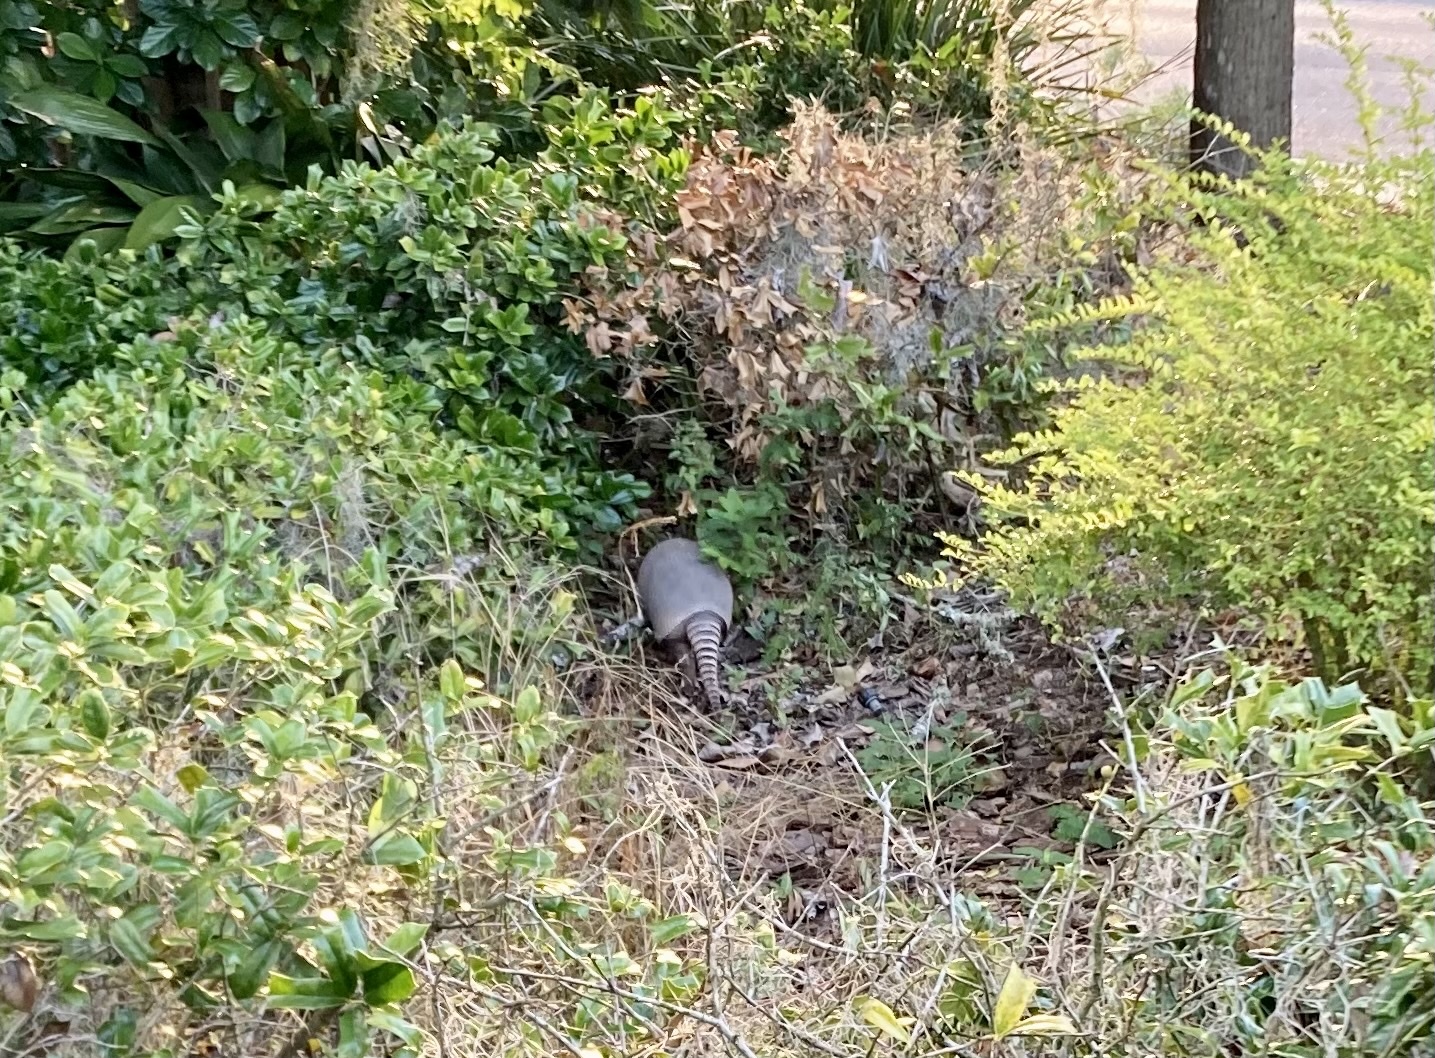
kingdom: Animalia
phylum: Chordata
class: Mammalia
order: Cingulata
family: Dasypodidae
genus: Dasypus
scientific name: Dasypus novemcinctus
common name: Nine-banded armadillo
